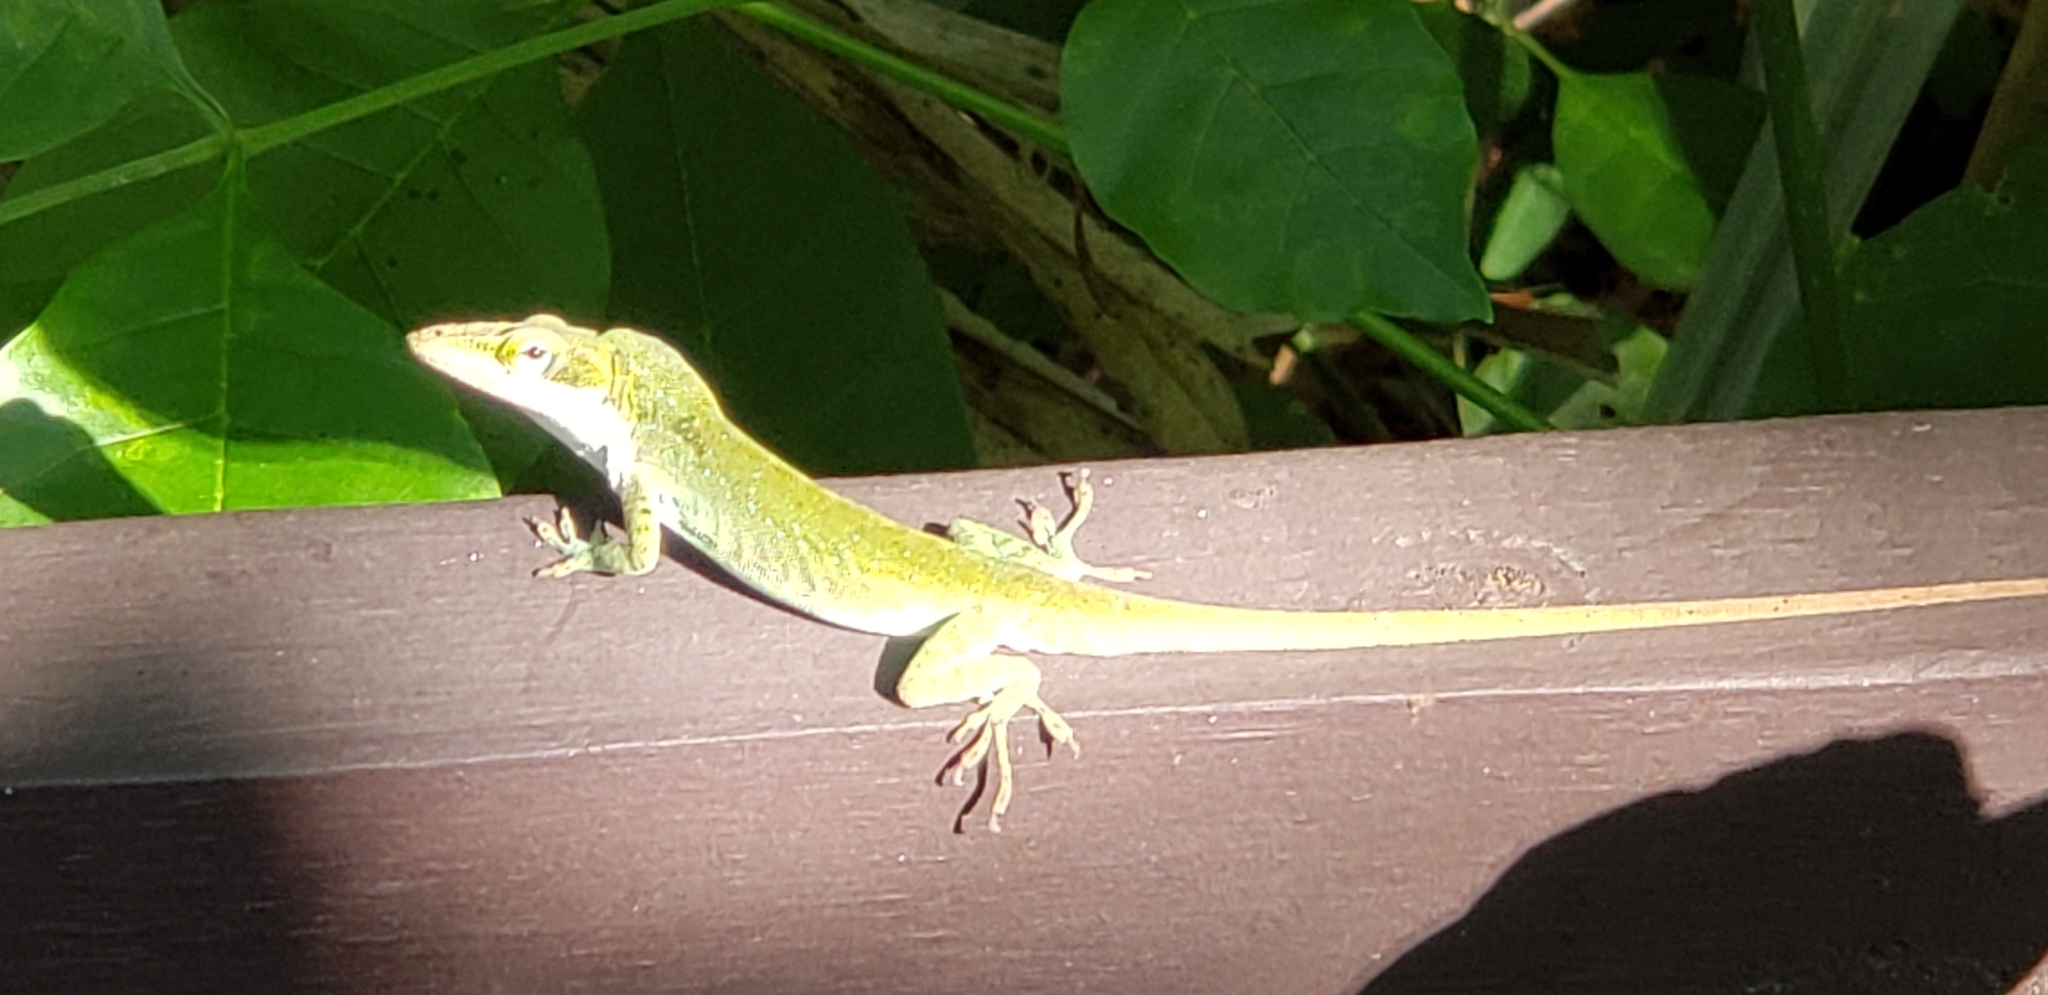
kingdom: Animalia
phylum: Chordata
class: Squamata
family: Dactyloidae
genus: Anolis
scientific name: Anolis carolinensis
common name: Green anole
